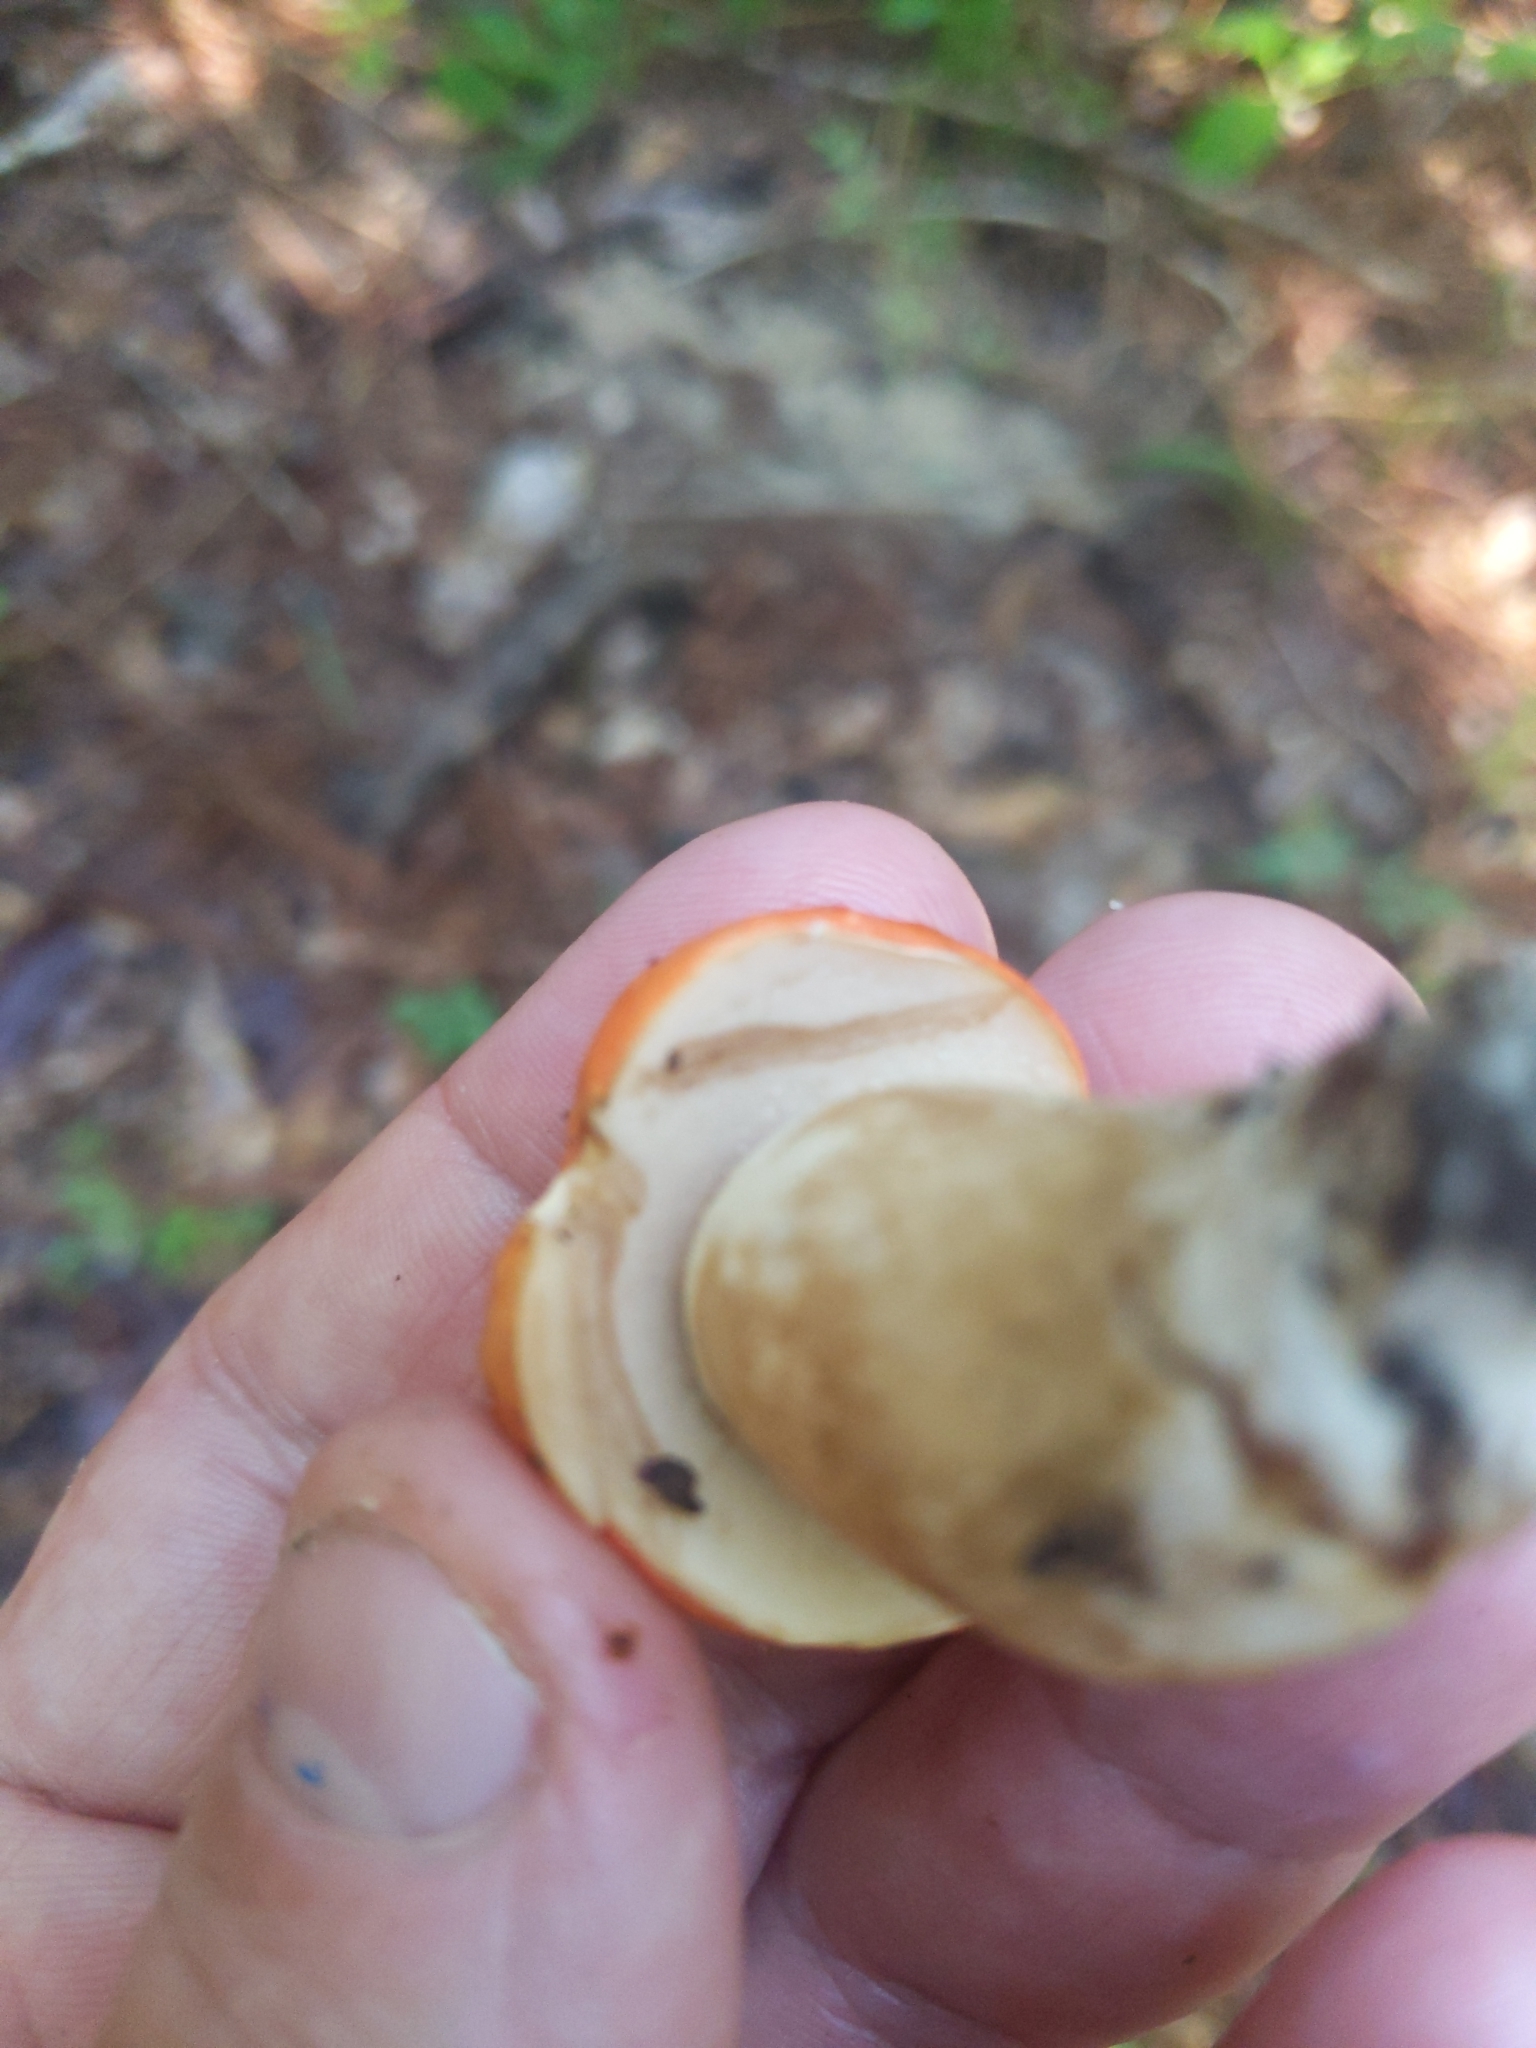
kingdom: Fungi
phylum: Basidiomycota
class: Agaricomycetes
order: Boletales
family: Boletaceae
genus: Tylopilus
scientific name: Tylopilus balloui
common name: Burnt-orange bolete
